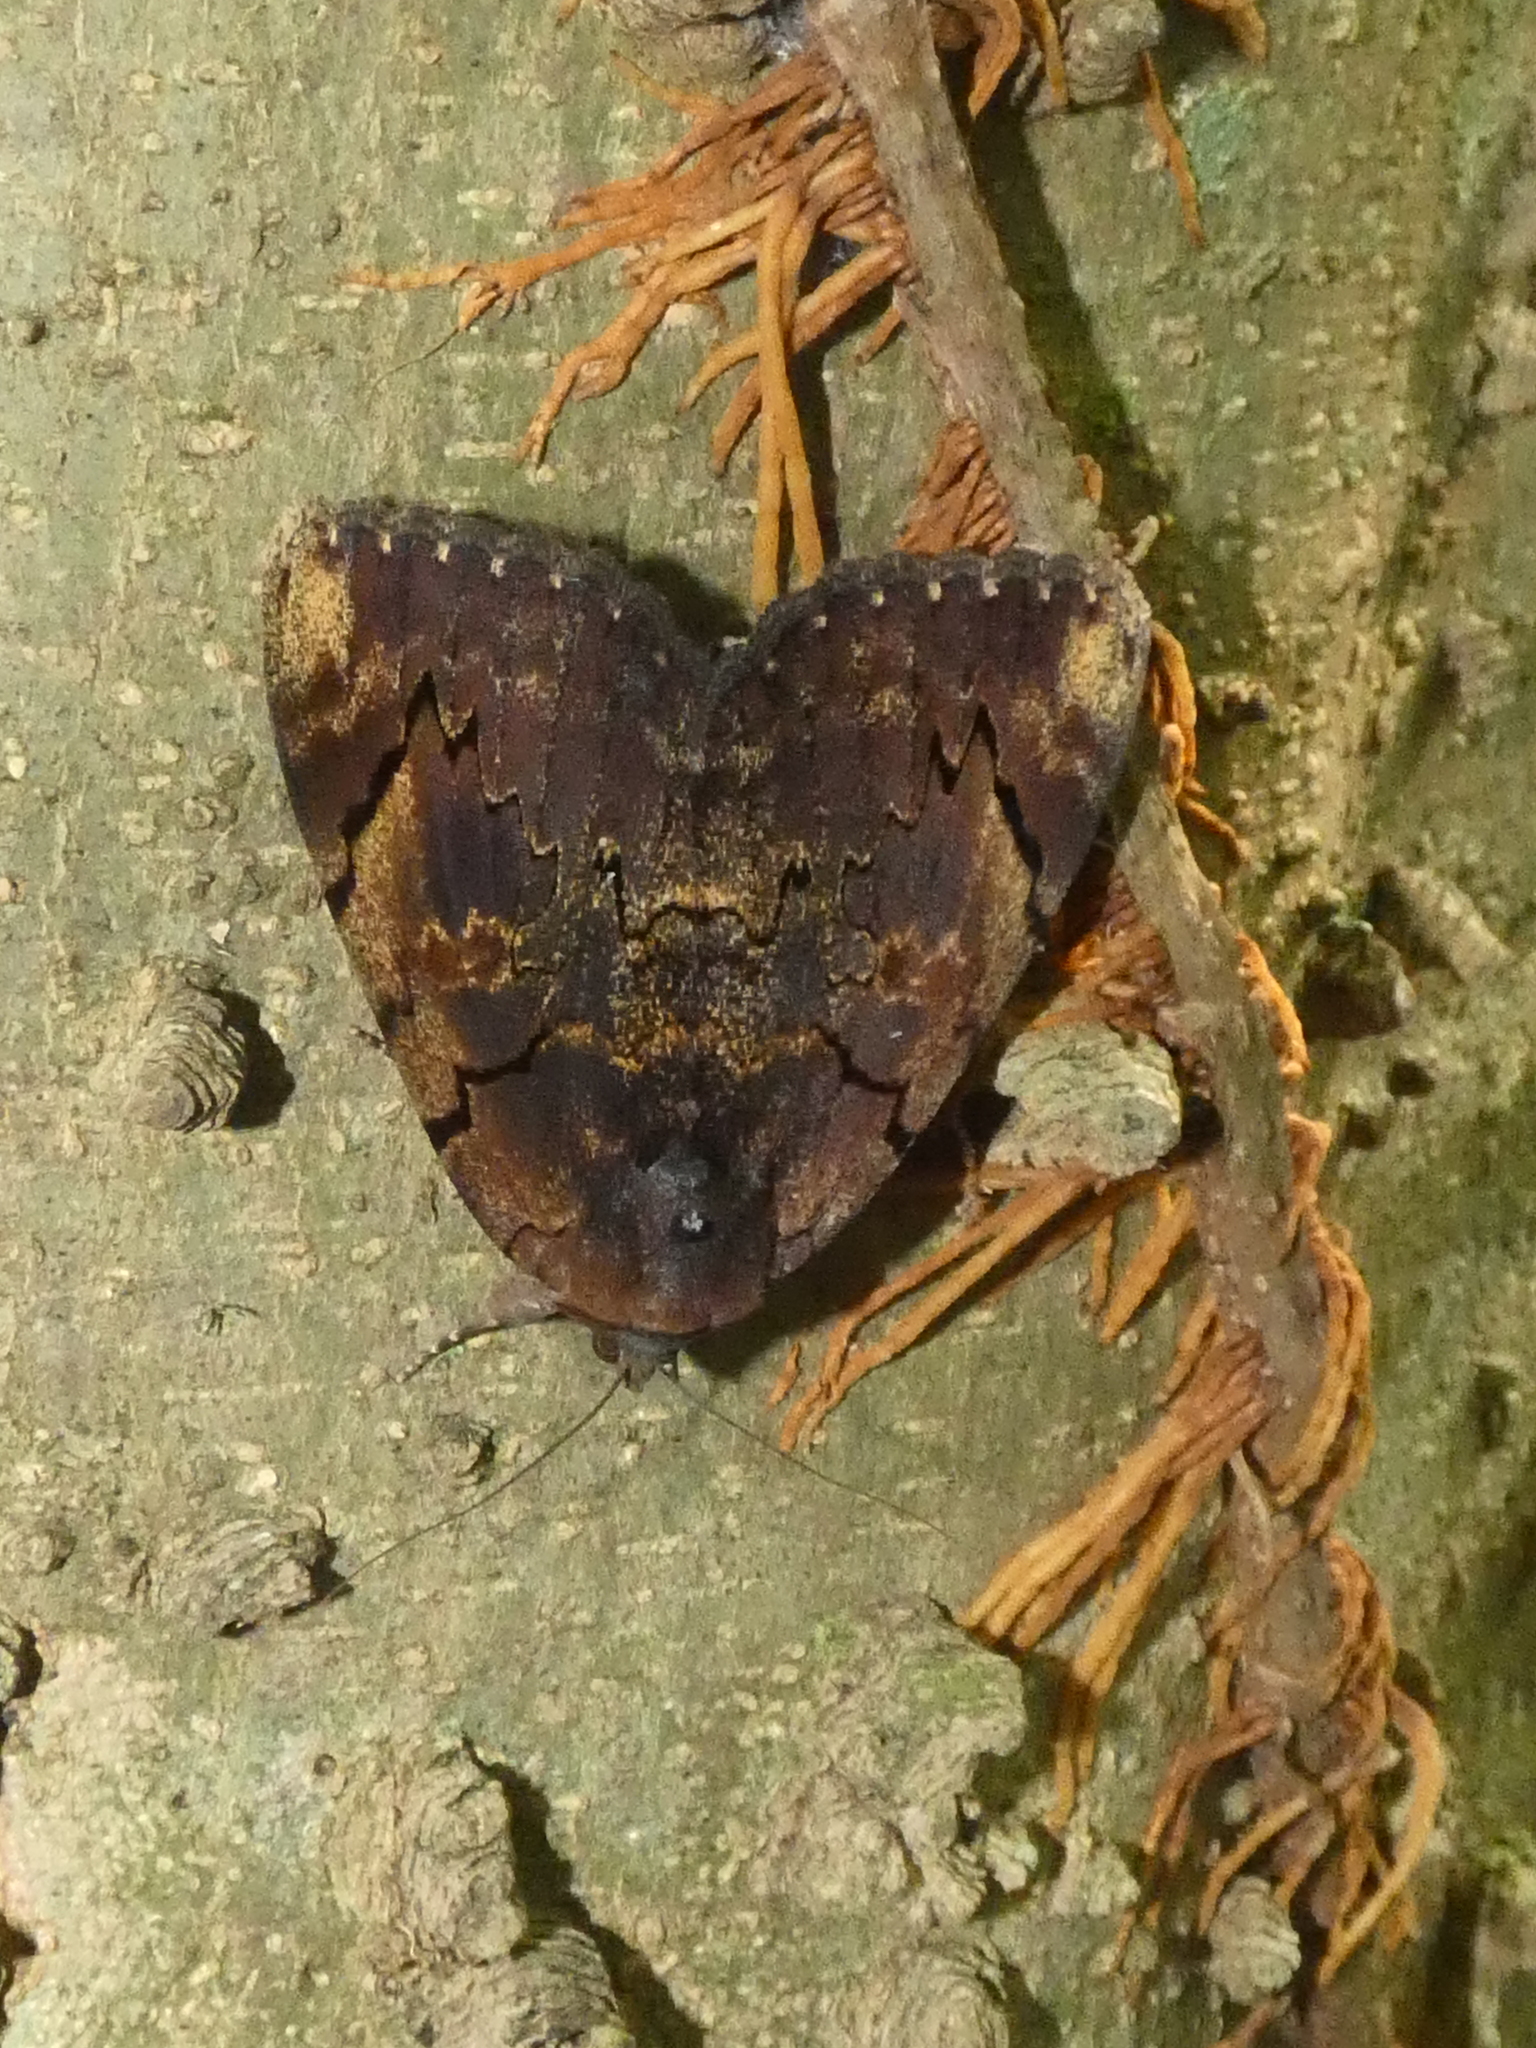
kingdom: Animalia
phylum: Arthropoda
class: Insecta
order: Lepidoptera
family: Erebidae
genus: Catocala
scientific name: Catocala carissima
